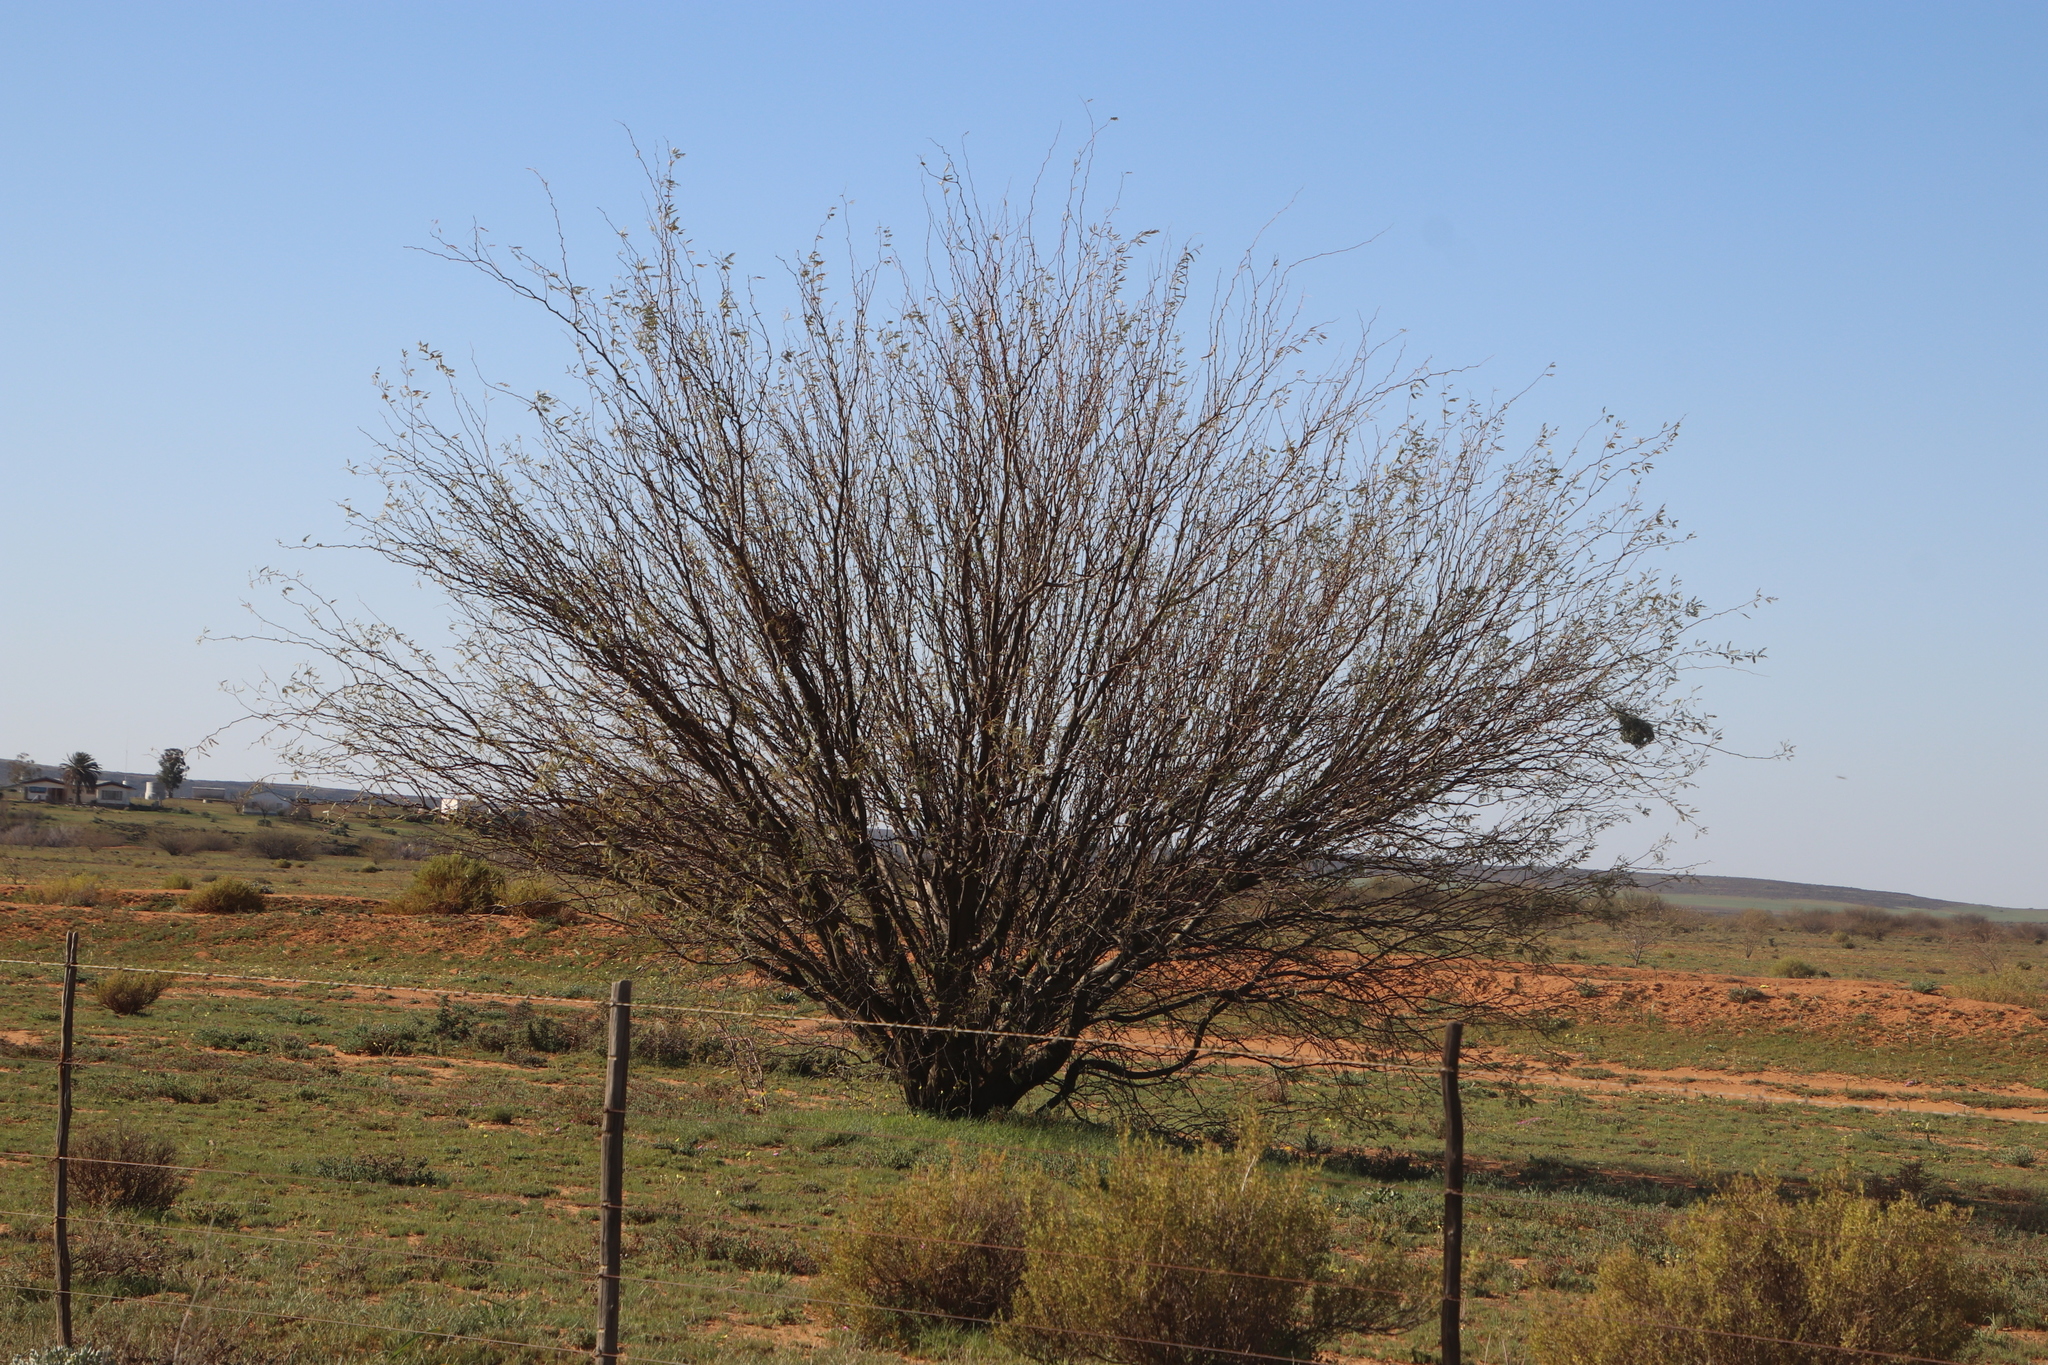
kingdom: Plantae
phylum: Tracheophyta
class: Magnoliopsida
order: Fabales
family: Fabaceae
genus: Prosopis
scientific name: Prosopis velutina
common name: Velvet mesquite
